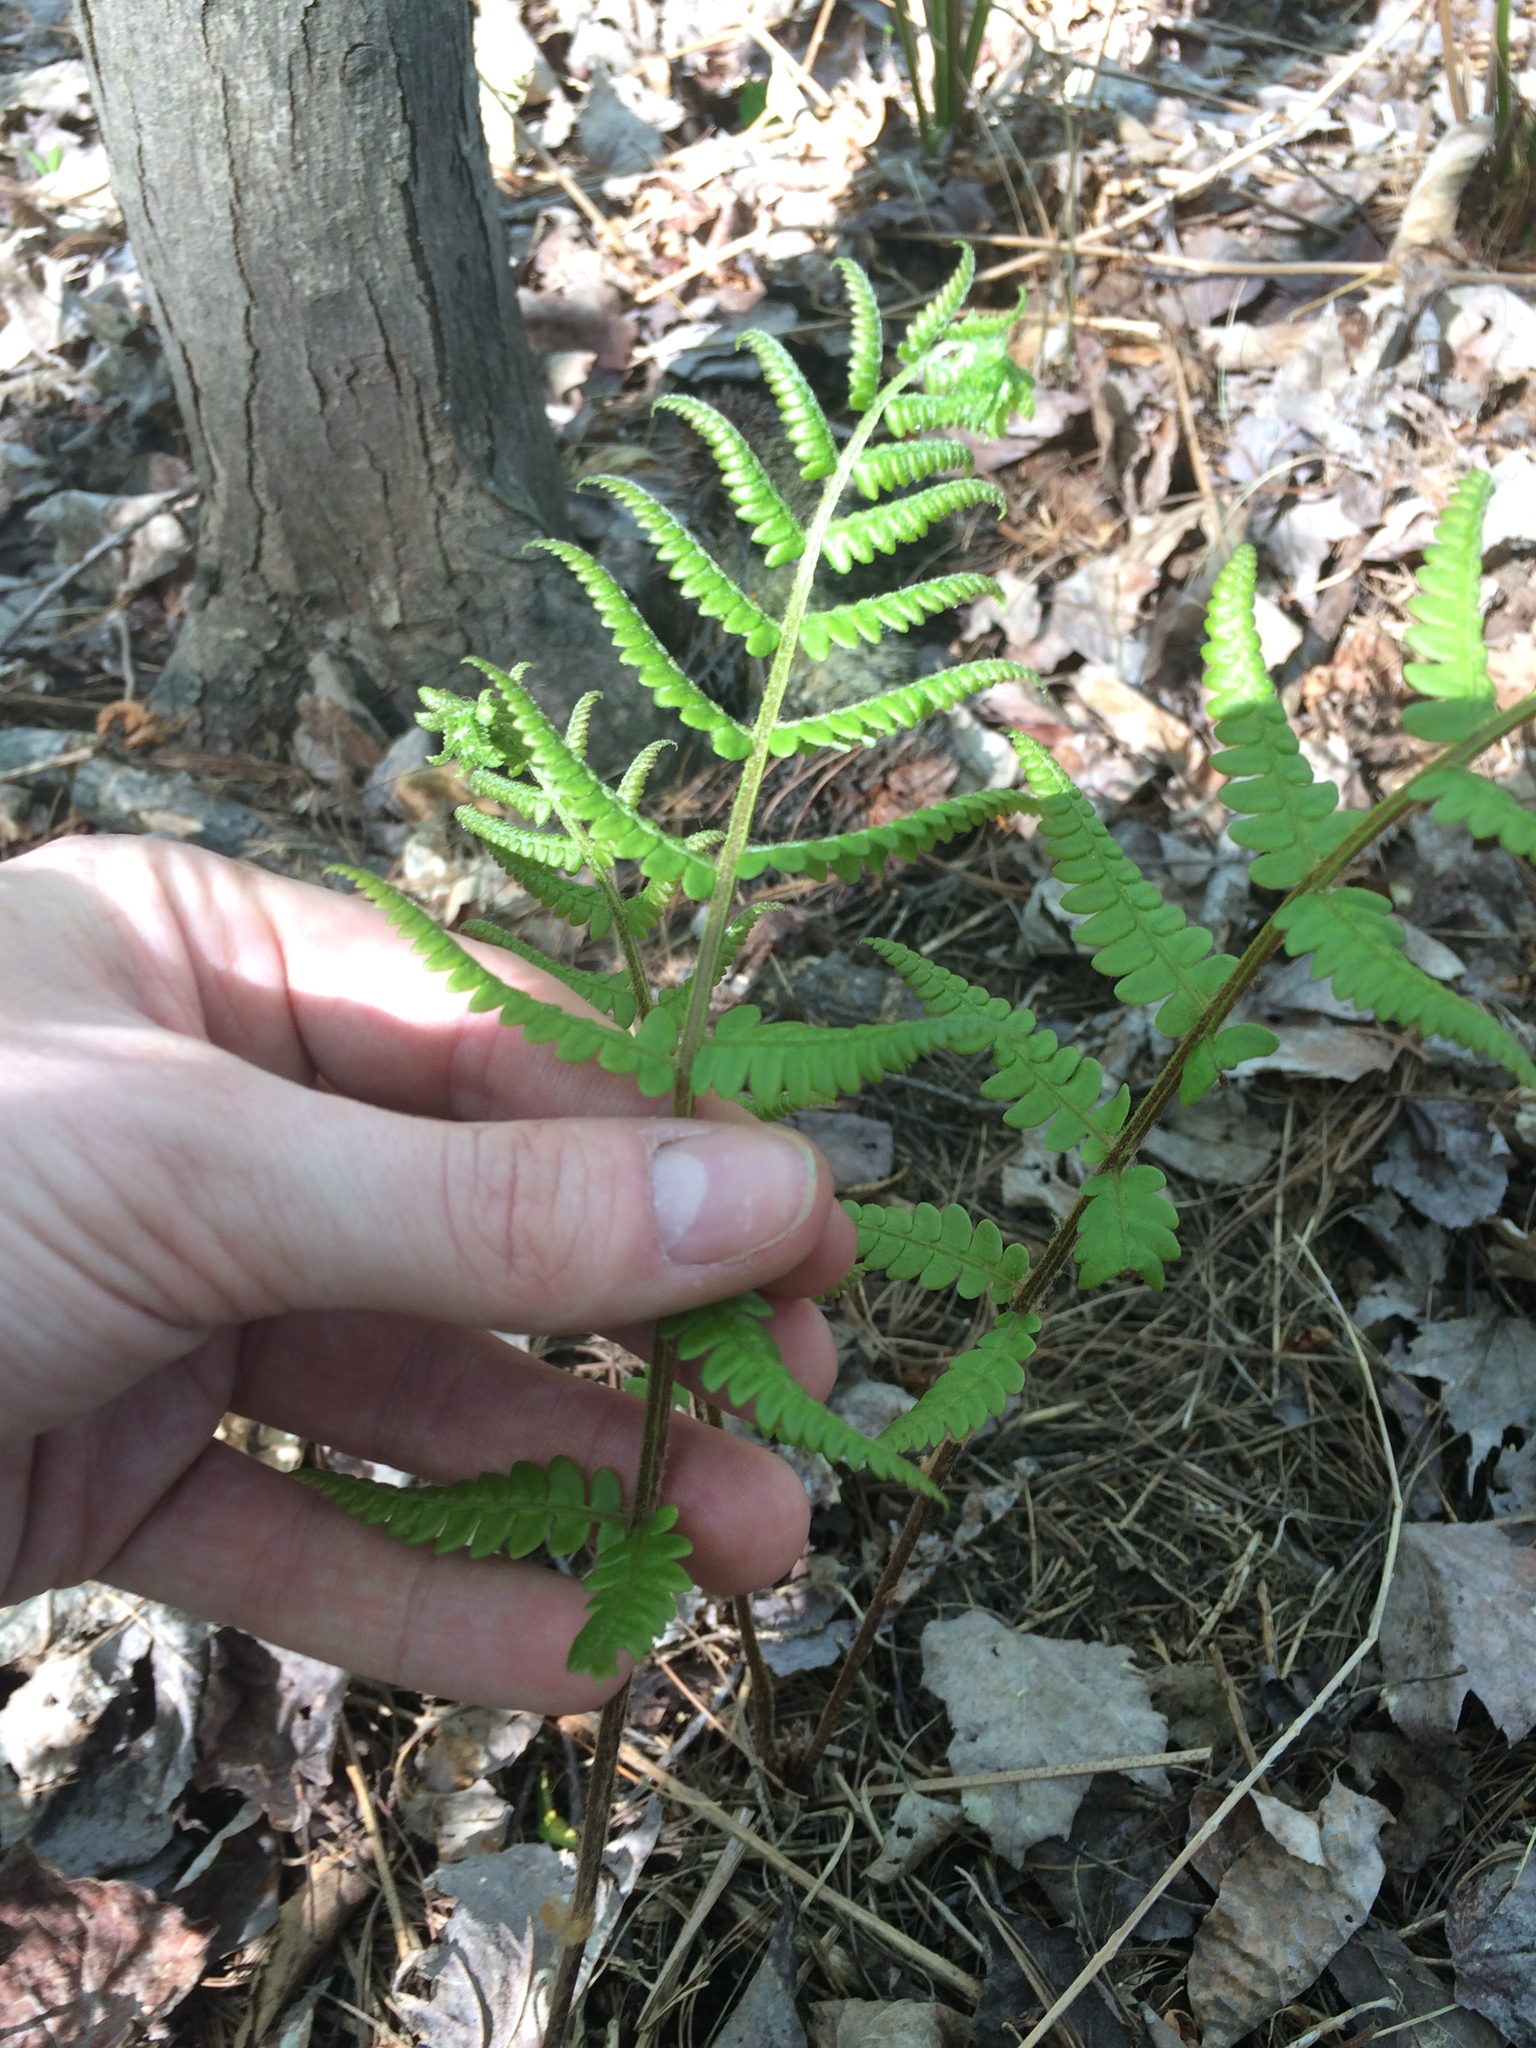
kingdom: Plantae
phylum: Tracheophyta
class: Polypodiopsida
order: Osmundales
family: Osmundaceae
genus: Osmundastrum
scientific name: Osmundastrum cinnamomeum
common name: Cinnamon fern
